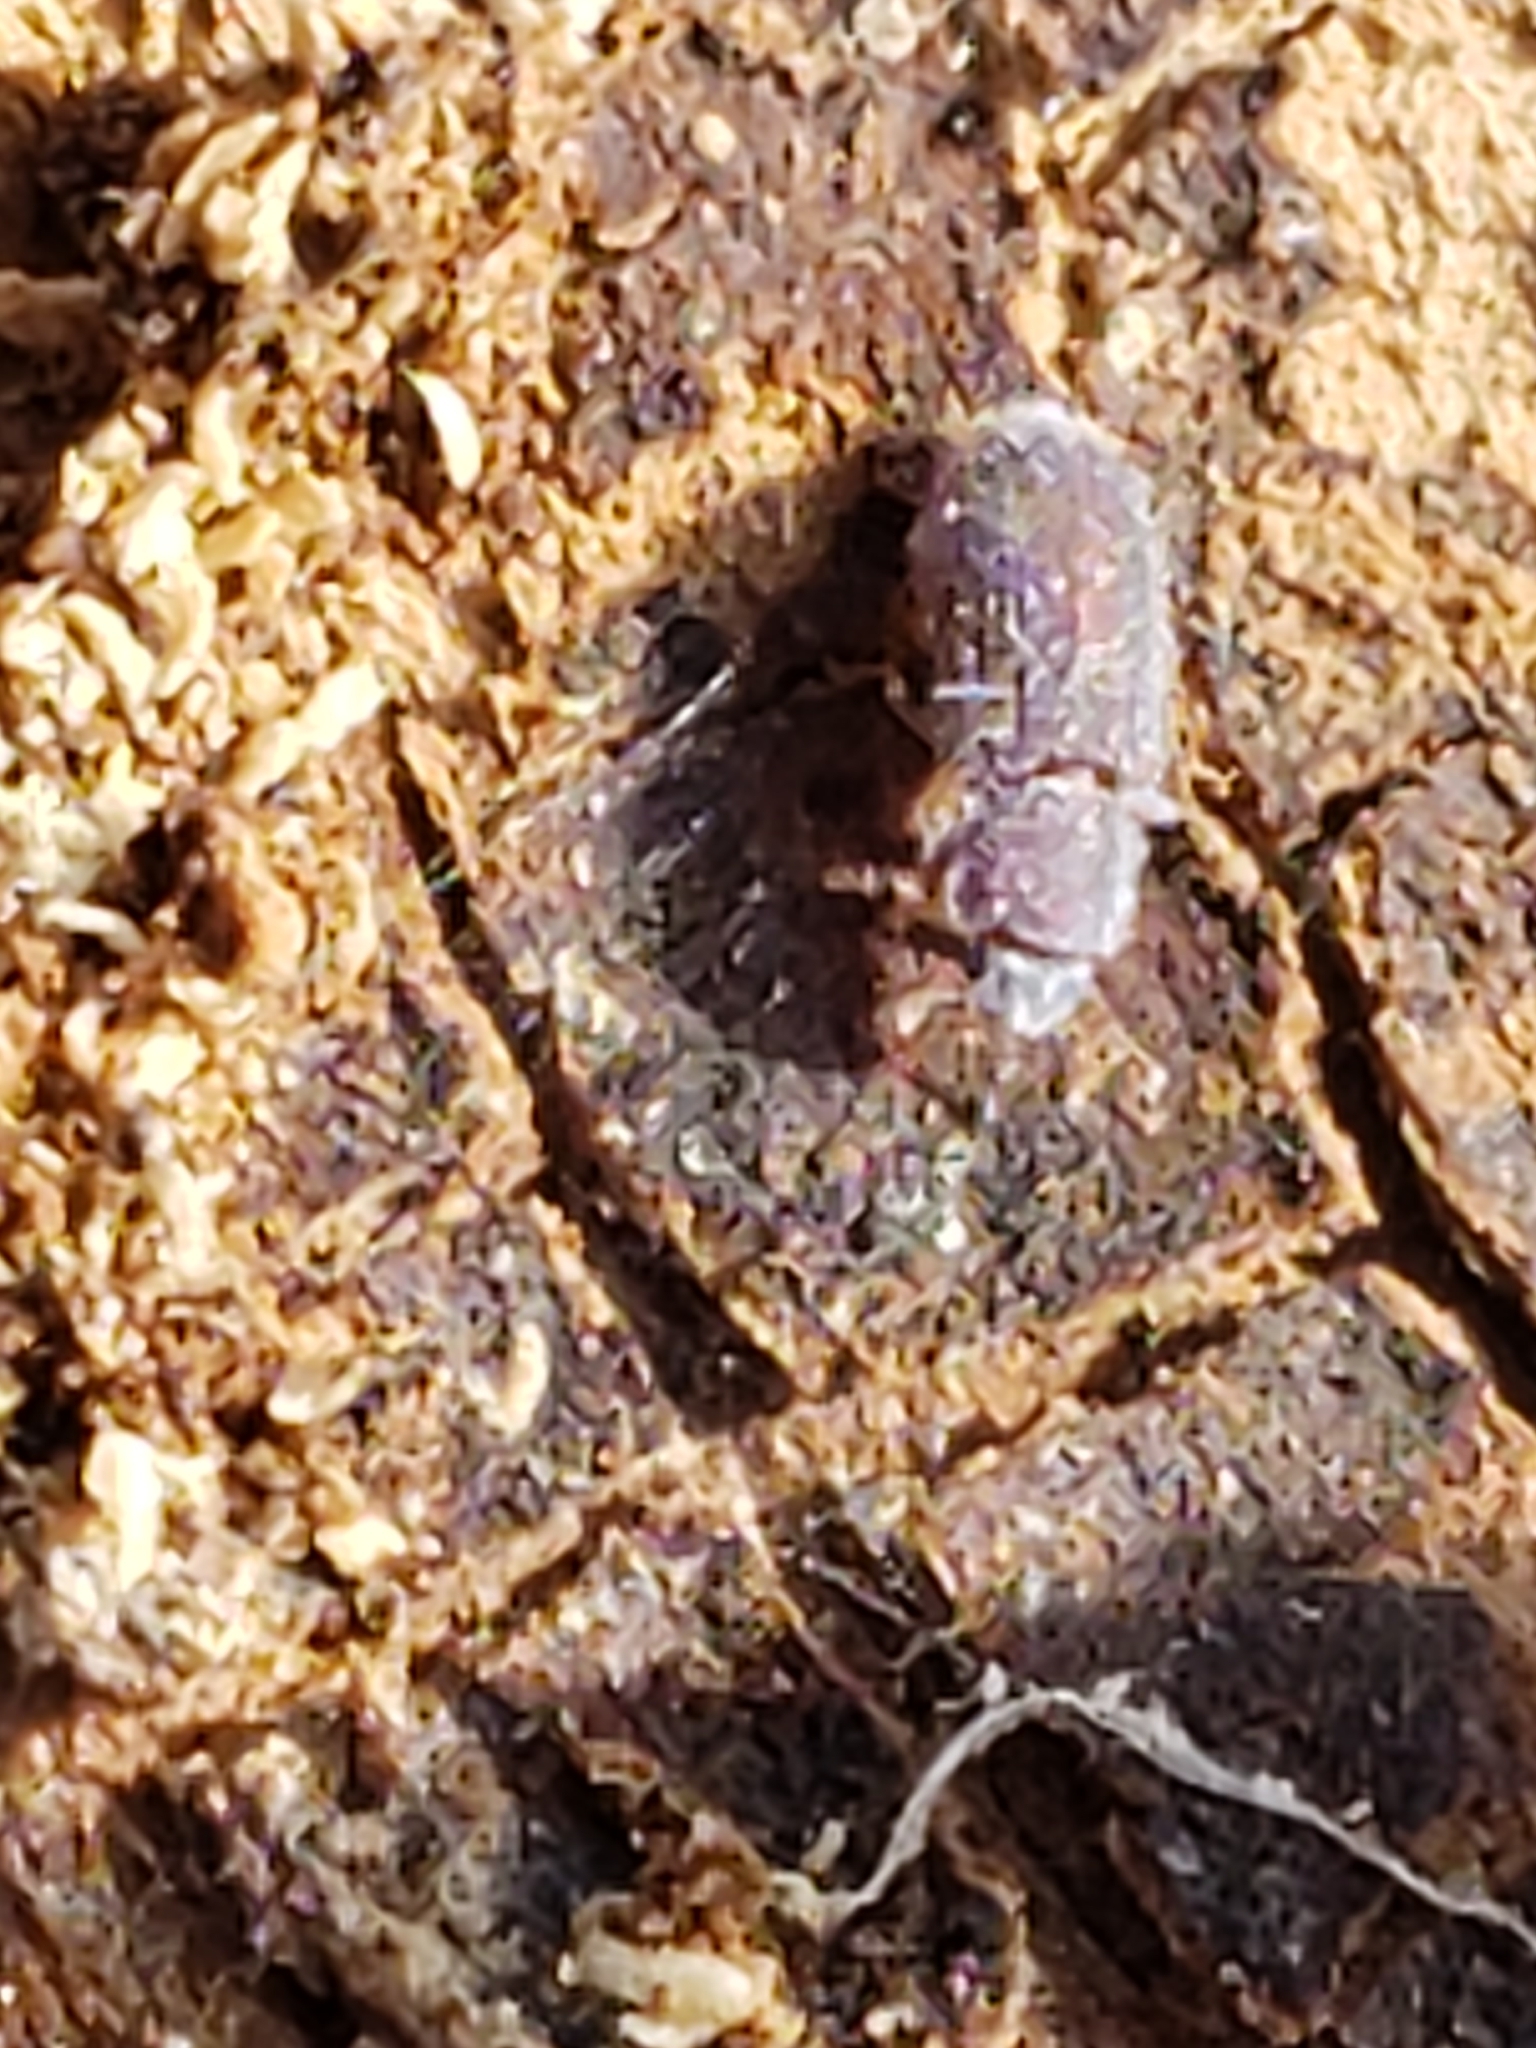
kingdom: Animalia
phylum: Arthropoda
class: Insecta
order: Coleoptera
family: Zopheridae
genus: Endeitoma
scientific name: Endeitoma granulata
